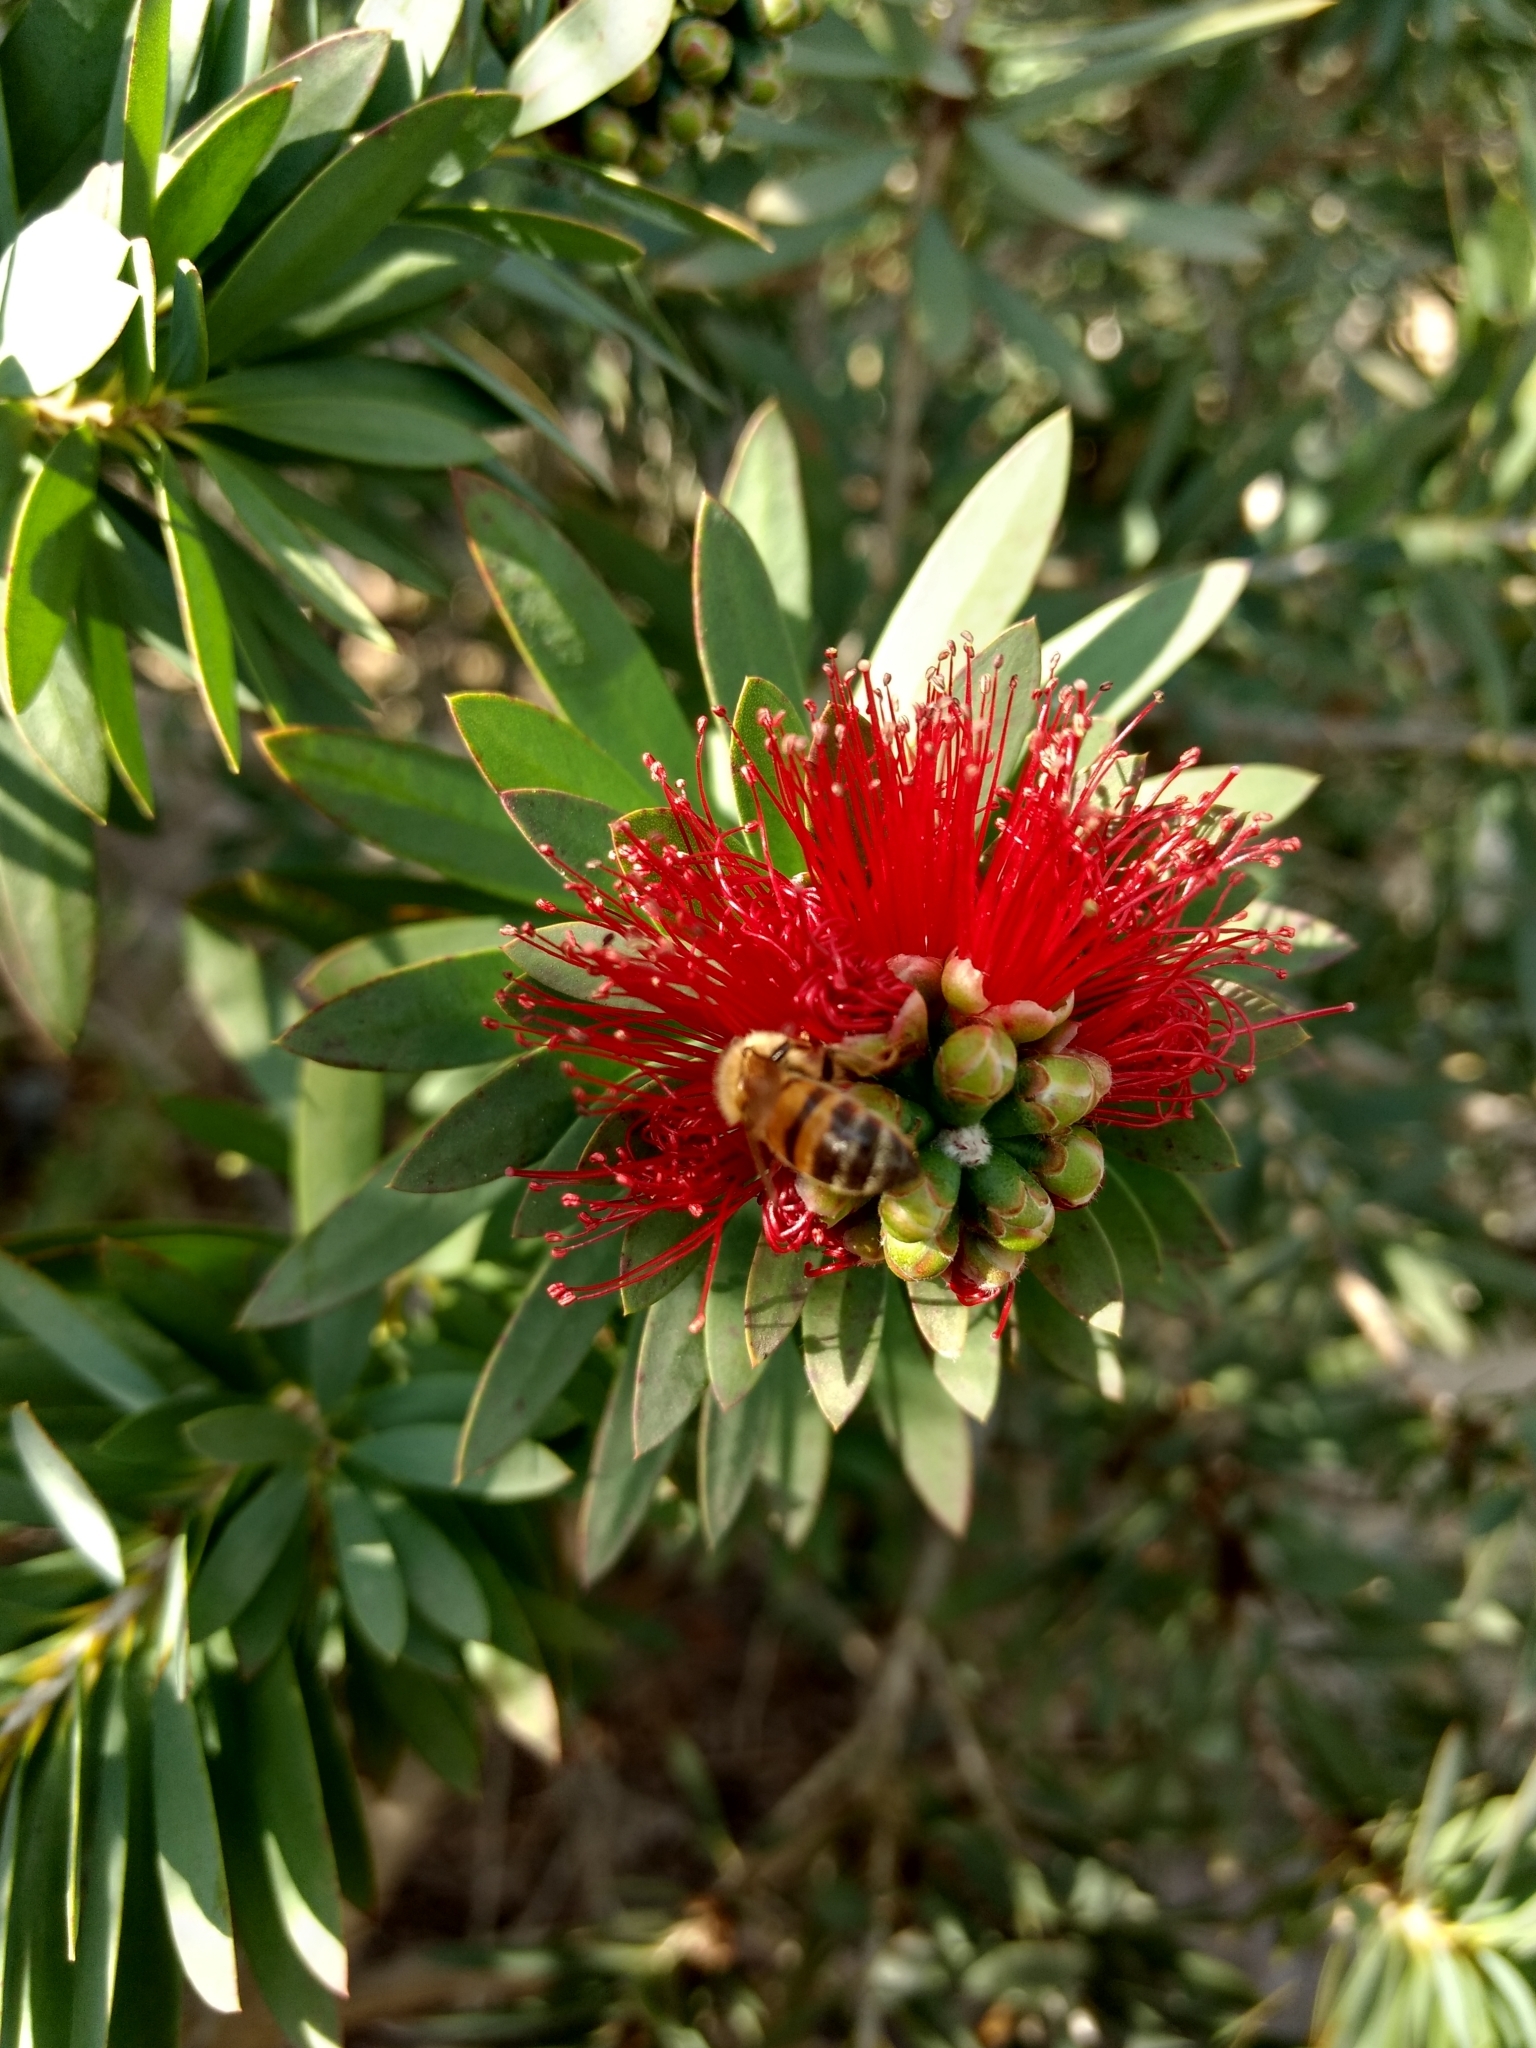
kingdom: Animalia
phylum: Arthropoda
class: Insecta
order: Hymenoptera
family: Apidae
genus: Apis
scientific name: Apis mellifera
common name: Honey bee
